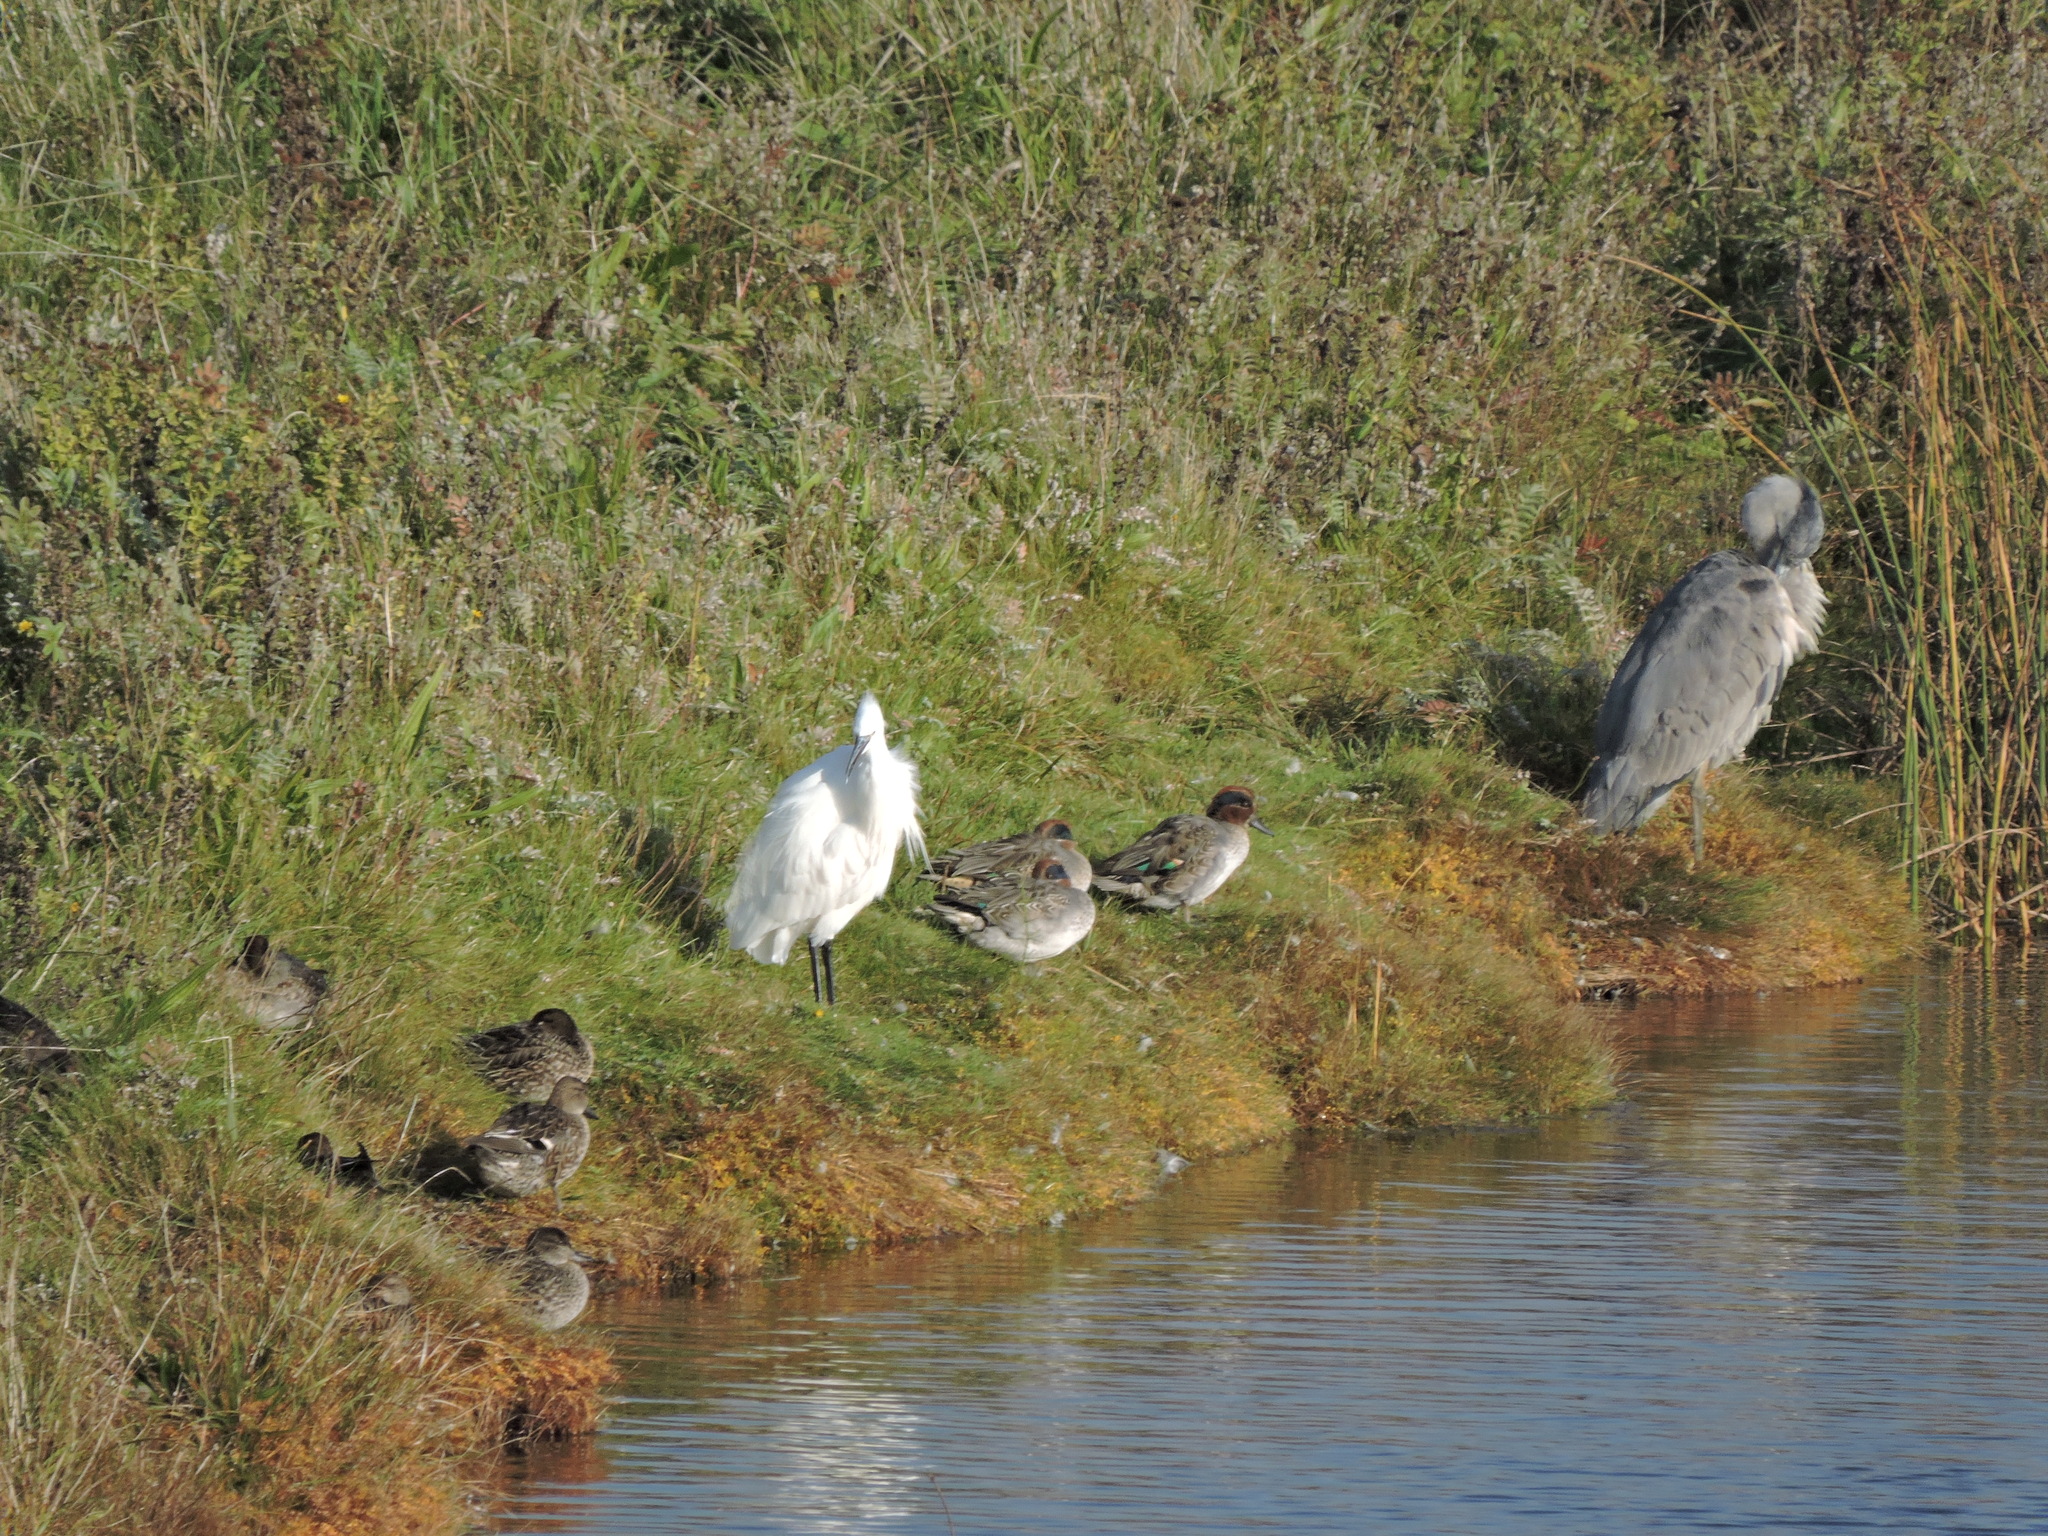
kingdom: Animalia
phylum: Chordata
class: Aves
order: Anseriformes
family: Anatidae
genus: Anas
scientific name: Anas crecca
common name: Eurasian teal
